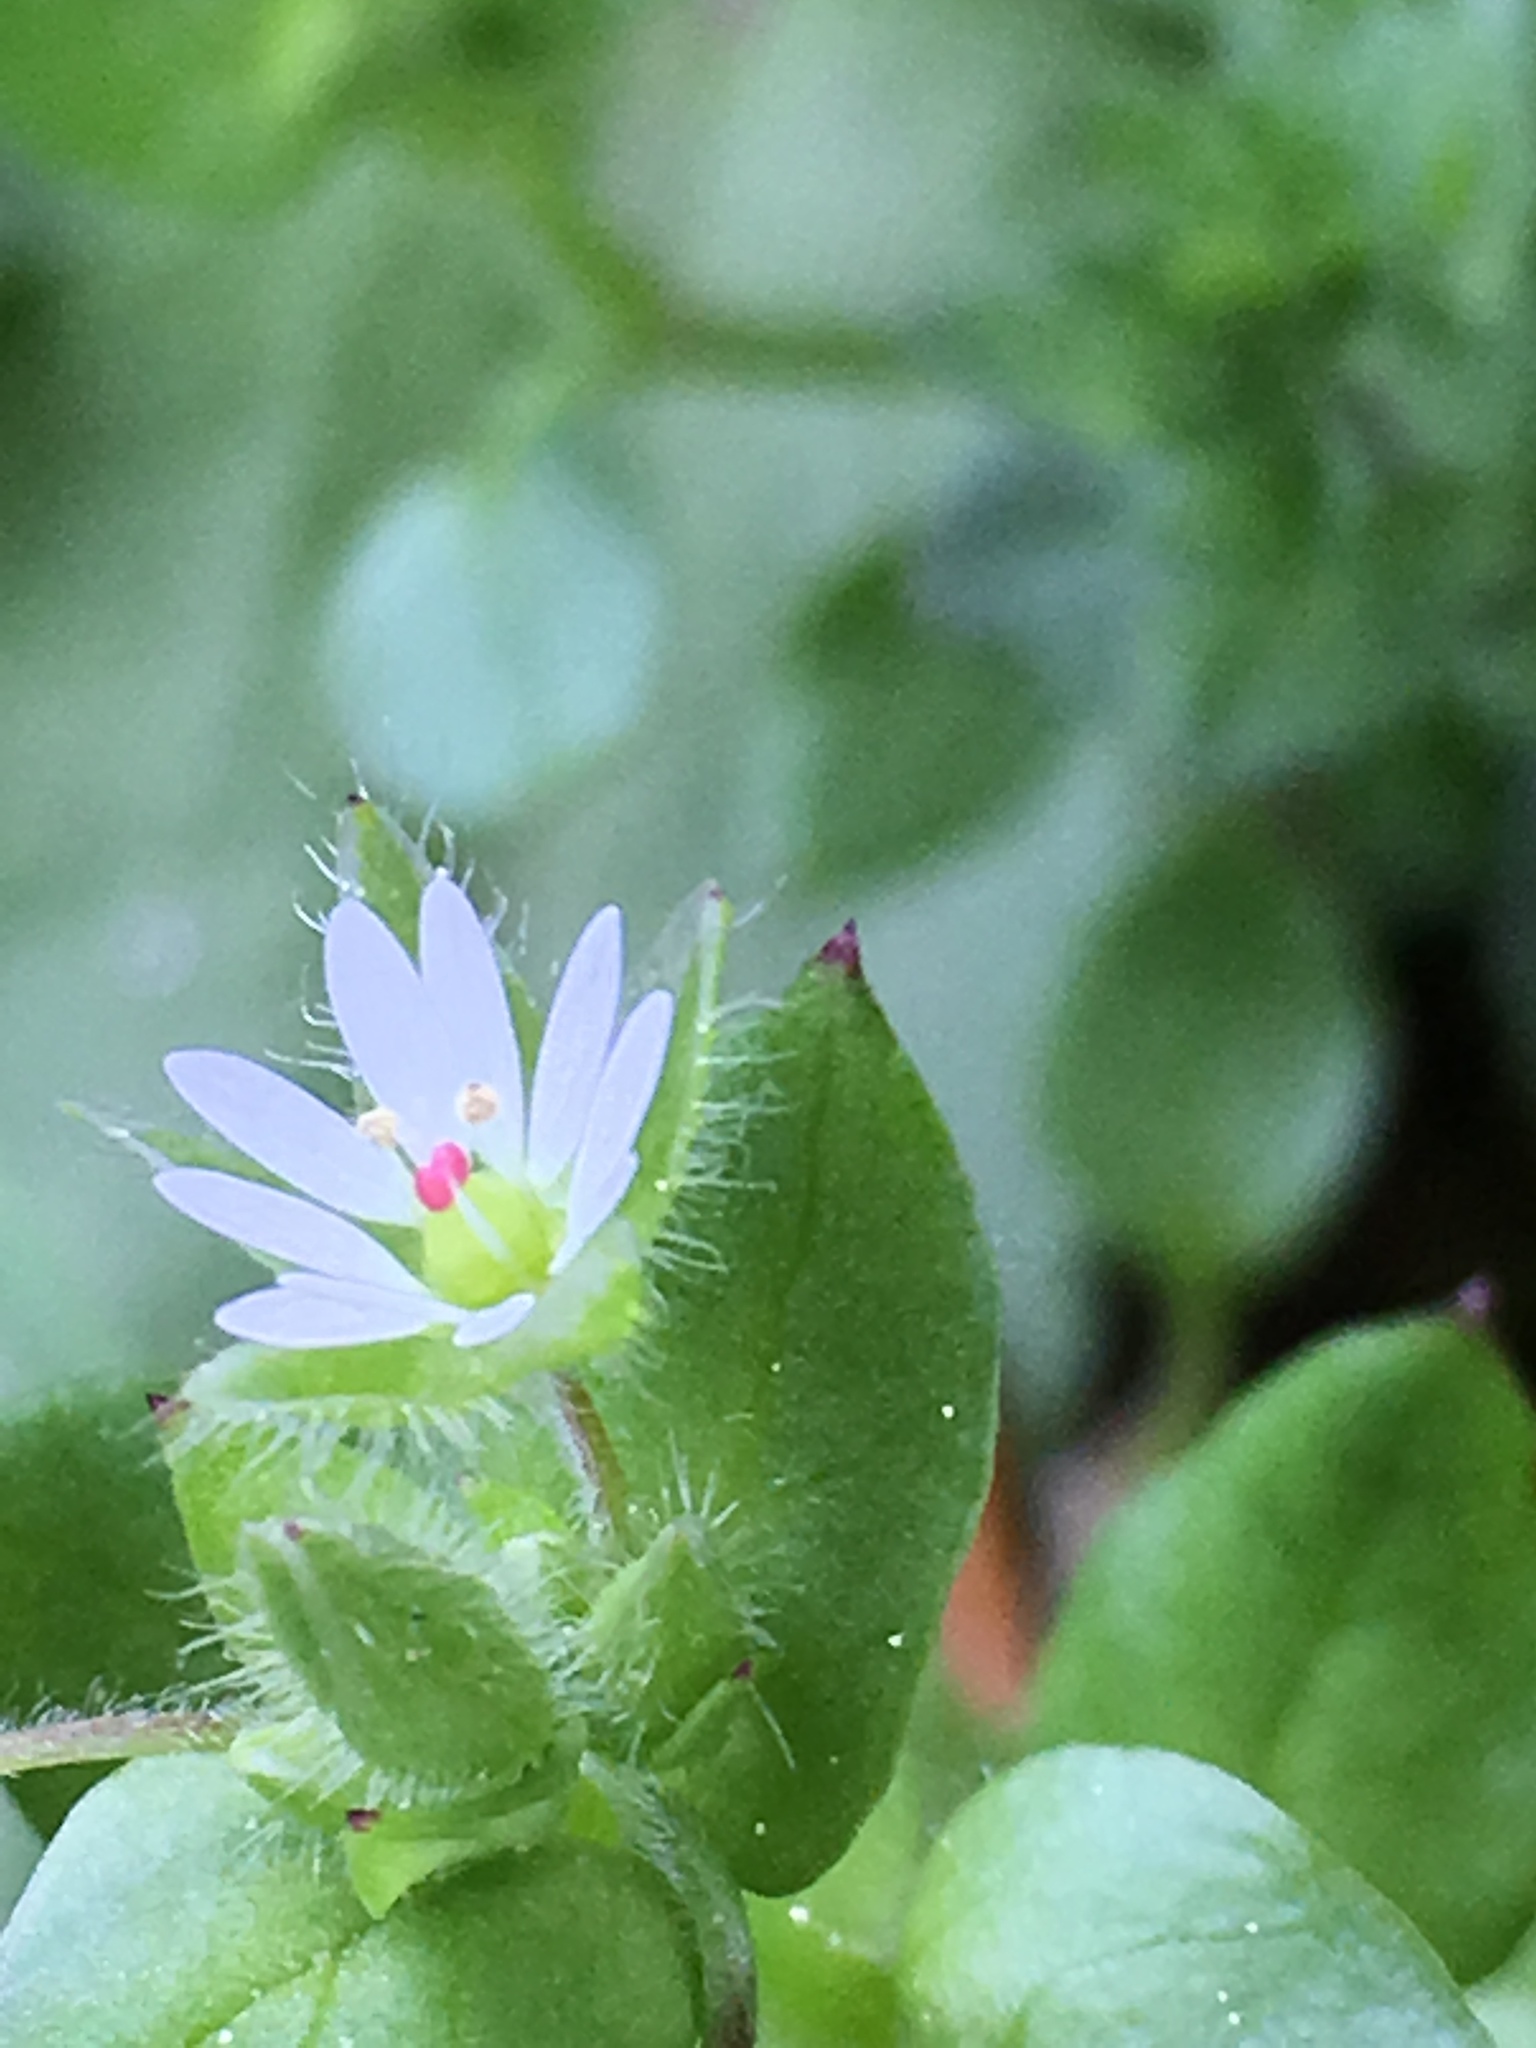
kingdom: Plantae
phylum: Tracheophyta
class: Magnoliopsida
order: Caryophyllales
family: Caryophyllaceae
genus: Stellaria
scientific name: Stellaria media
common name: Common chickweed
